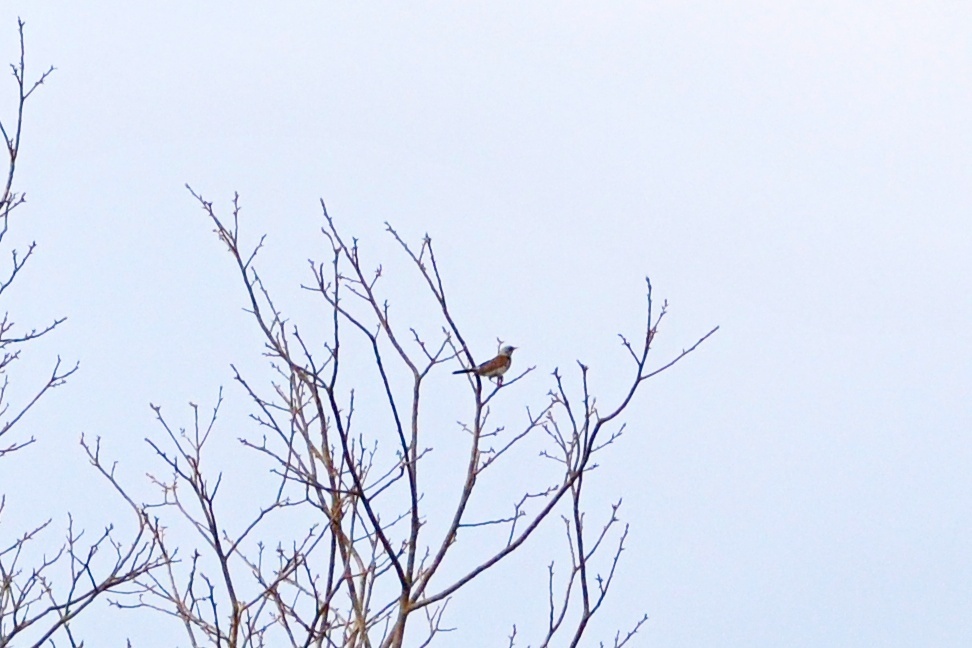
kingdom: Animalia
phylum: Chordata
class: Aves
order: Passeriformes
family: Turdidae
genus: Turdus
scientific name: Turdus pilaris
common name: Fieldfare
